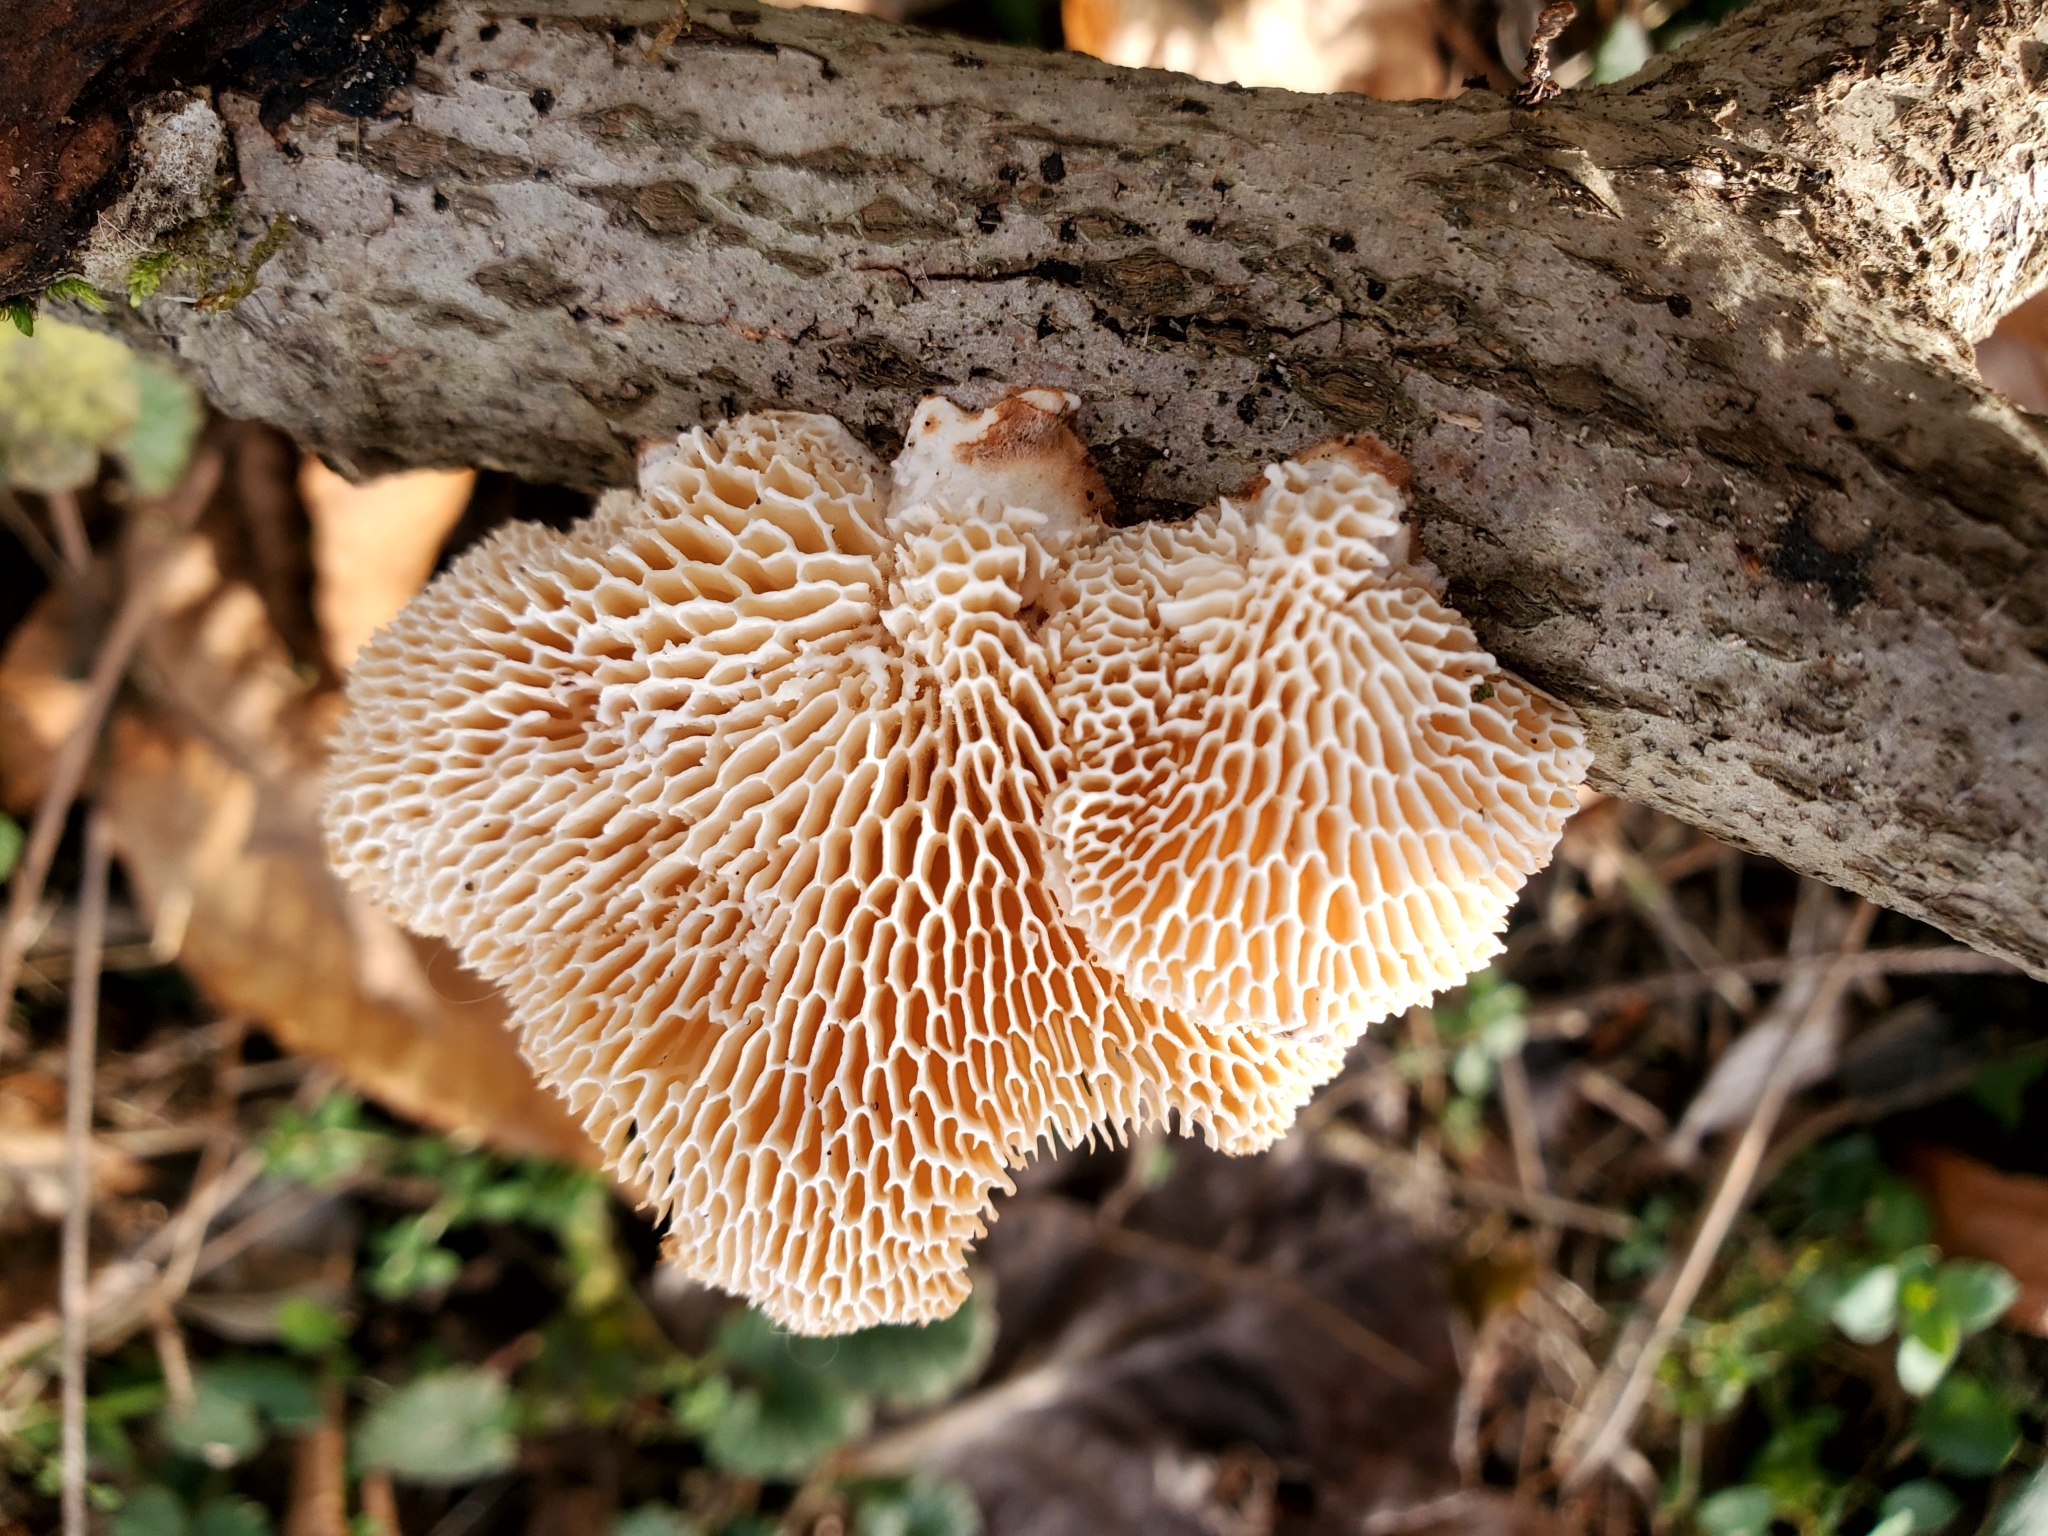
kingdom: Fungi
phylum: Basidiomycota
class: Agaricomycetes
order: Polyporales
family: Polyporaceae
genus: Neofavolus
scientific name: Neofavolus alveolaris
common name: Hexagonal-pored polypore
